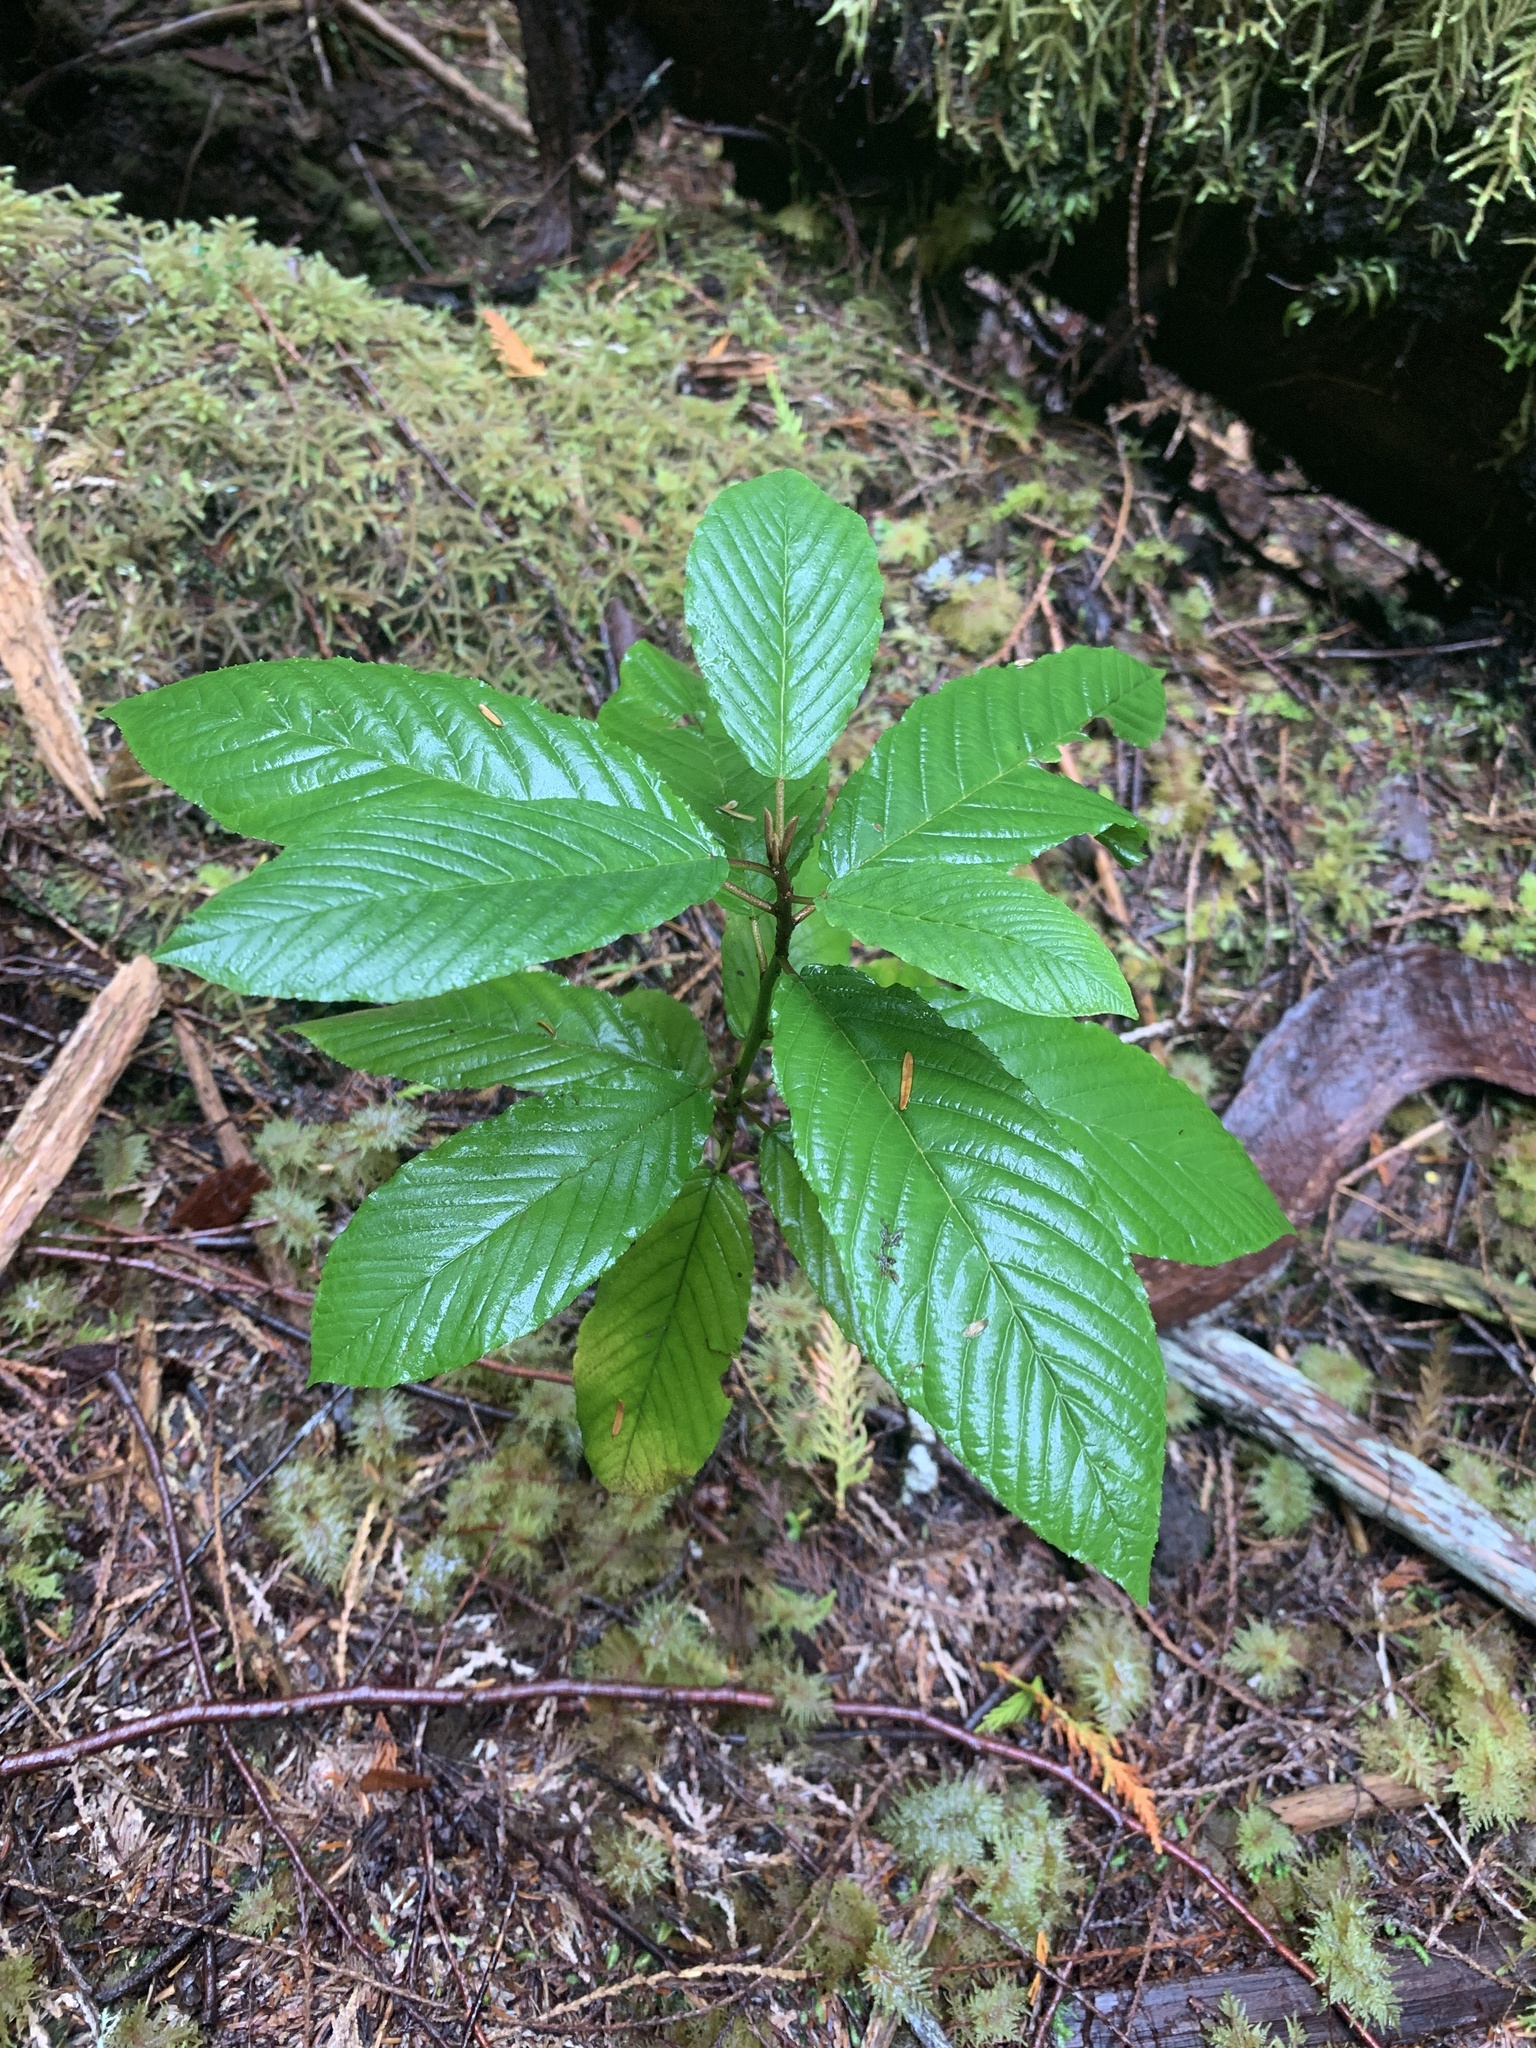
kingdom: Plantae
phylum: Tracheophyta
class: Magnoliopsida
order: Rosales
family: Rhamnaceae
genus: Frangula
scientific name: Frangula purshiana
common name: Cascara buckthorn
